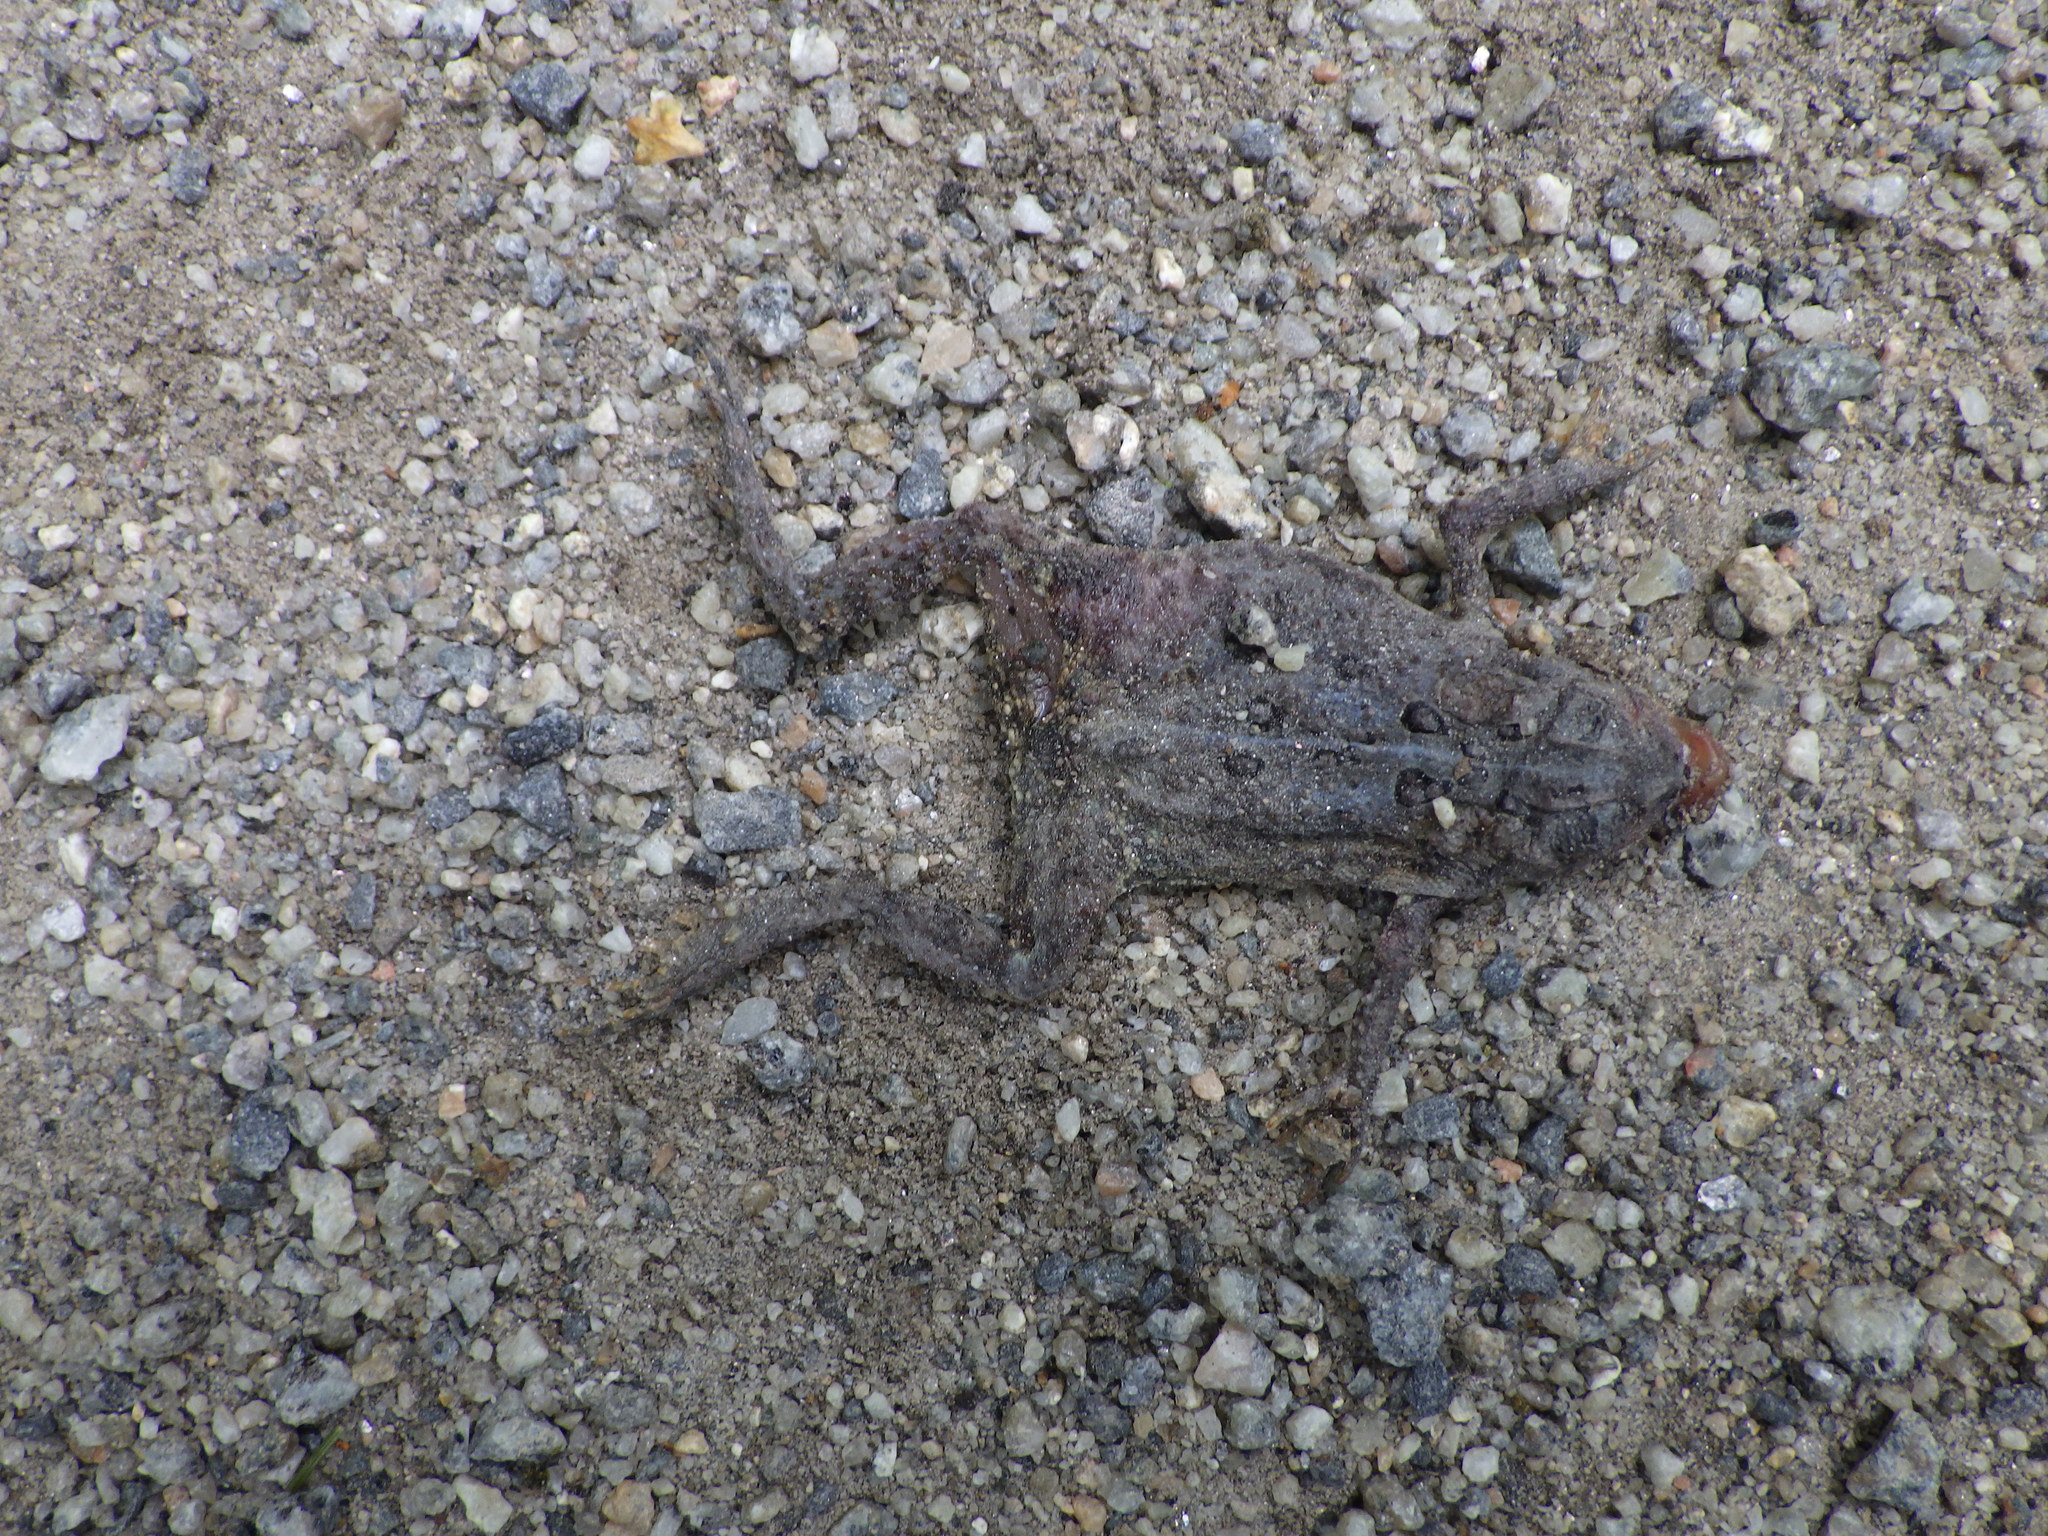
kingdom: Animalia
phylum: Chordata
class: Amphibia
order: Anura
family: Bufonidae
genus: Anaxyrus
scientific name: Anaxyrus americanus
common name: American toad
